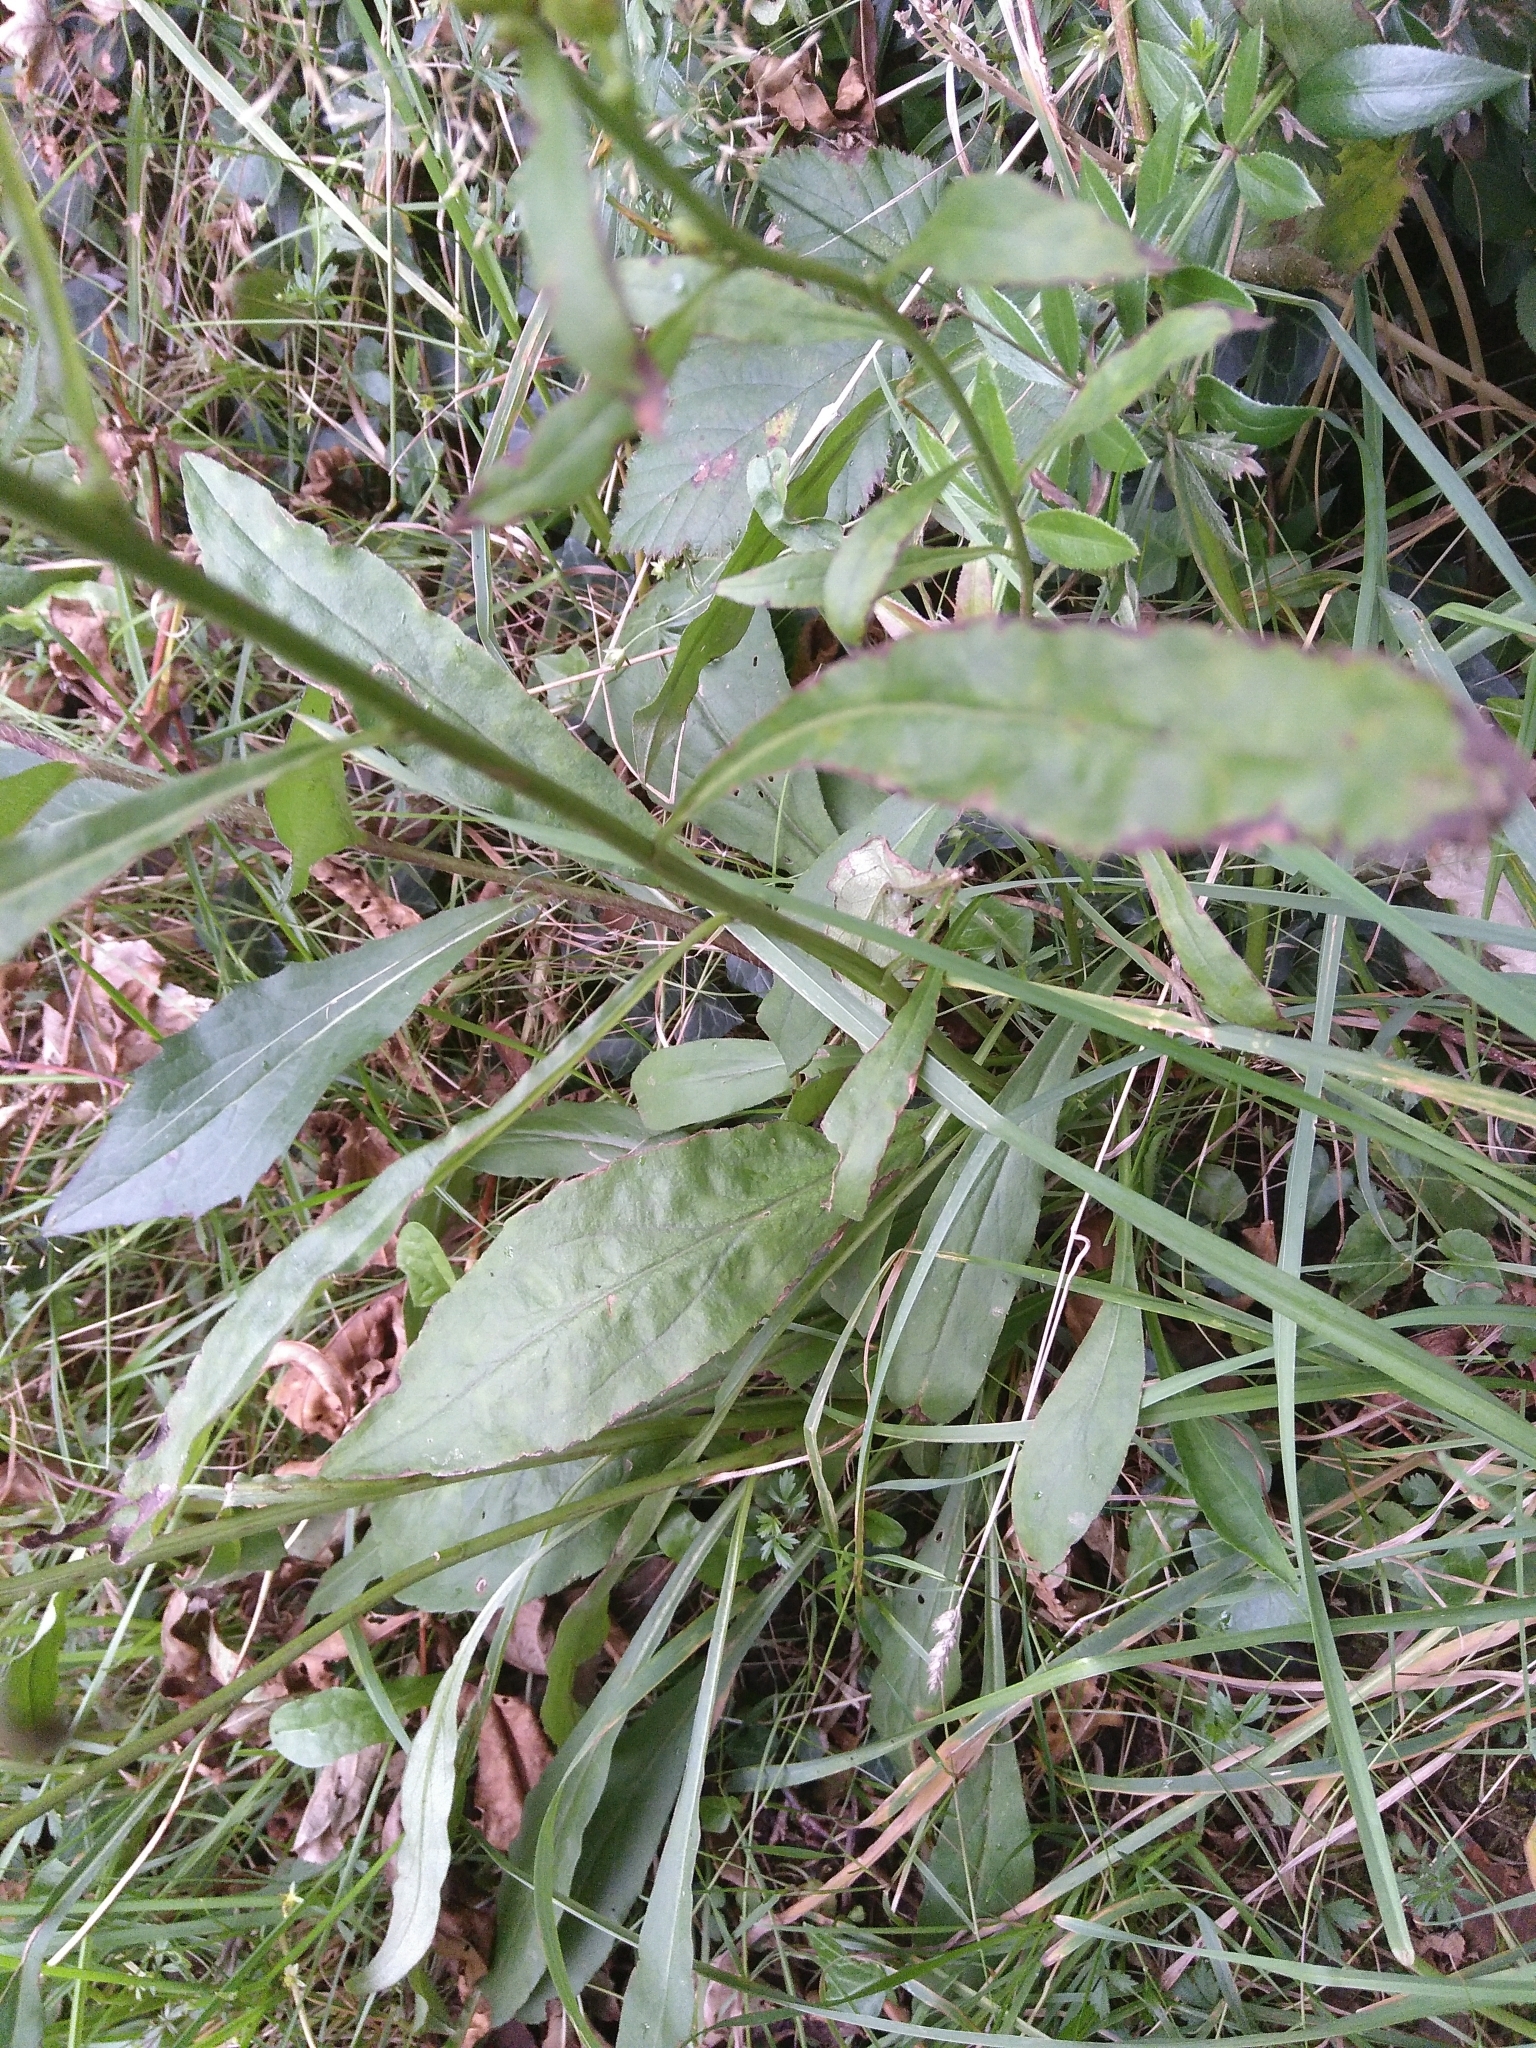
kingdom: Plantae
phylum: Tracheophyta
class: Magnoliopsida
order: Asterales
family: Asteraceae
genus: Solidago
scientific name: Solidago virgaurea
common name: Goldenrod
